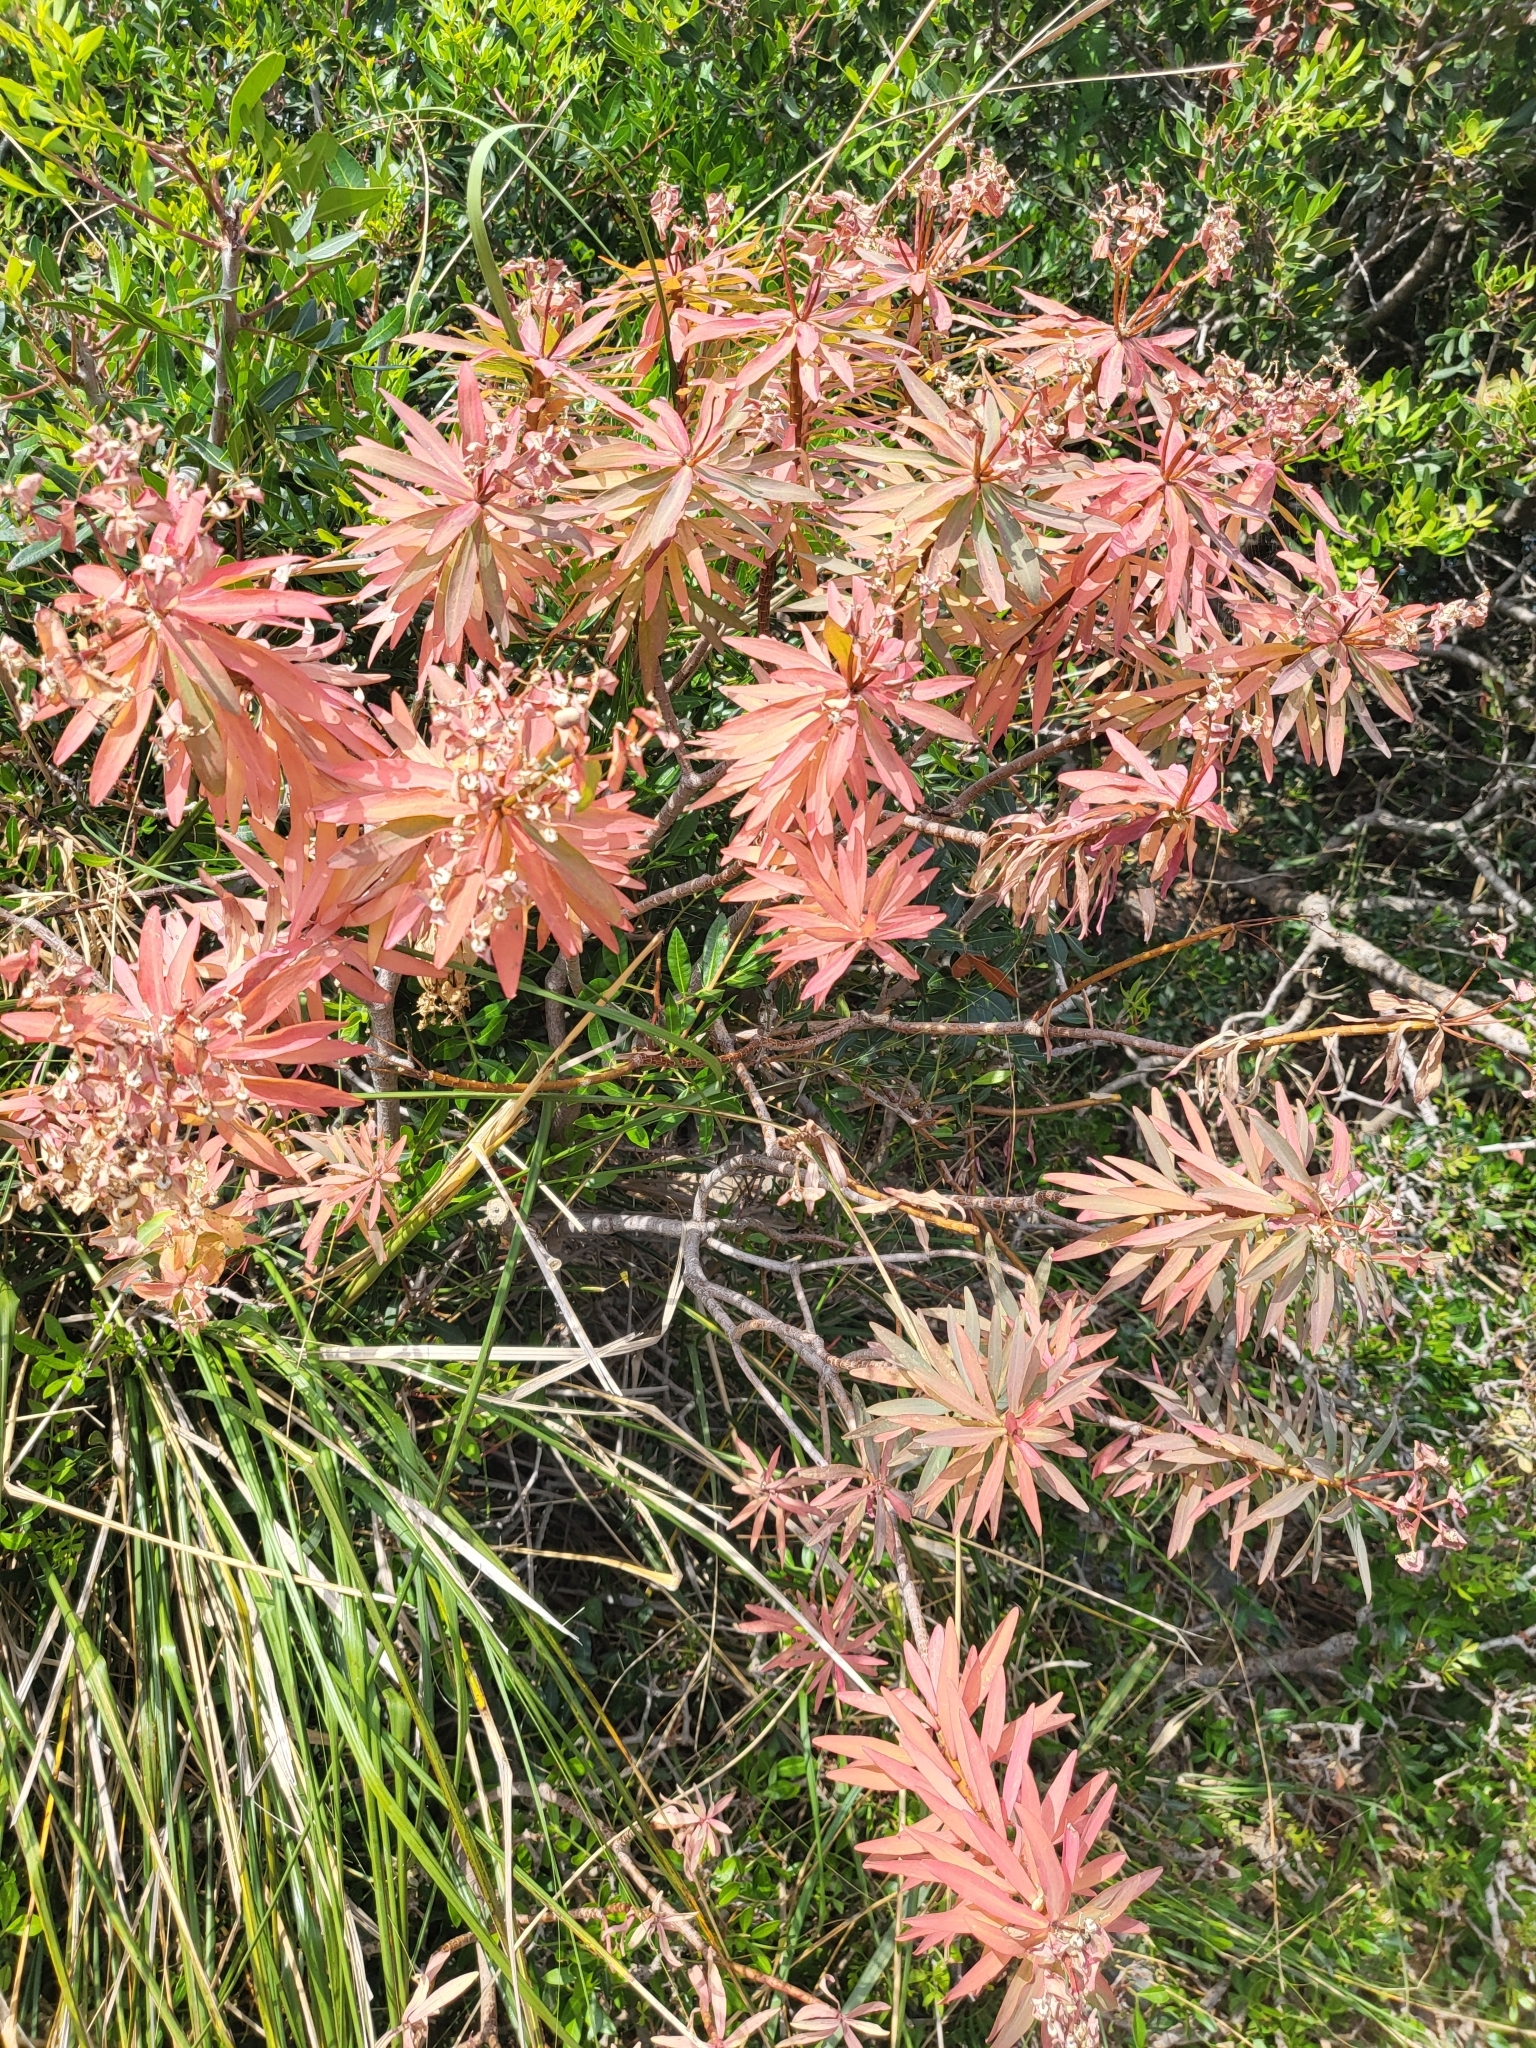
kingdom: Plantae
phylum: Tracheophyta
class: Magnoliopsida
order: Malpighiales
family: Euphorbiaceae
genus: Euphorbia
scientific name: Euphorbia dendroides
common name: Tree spurge
